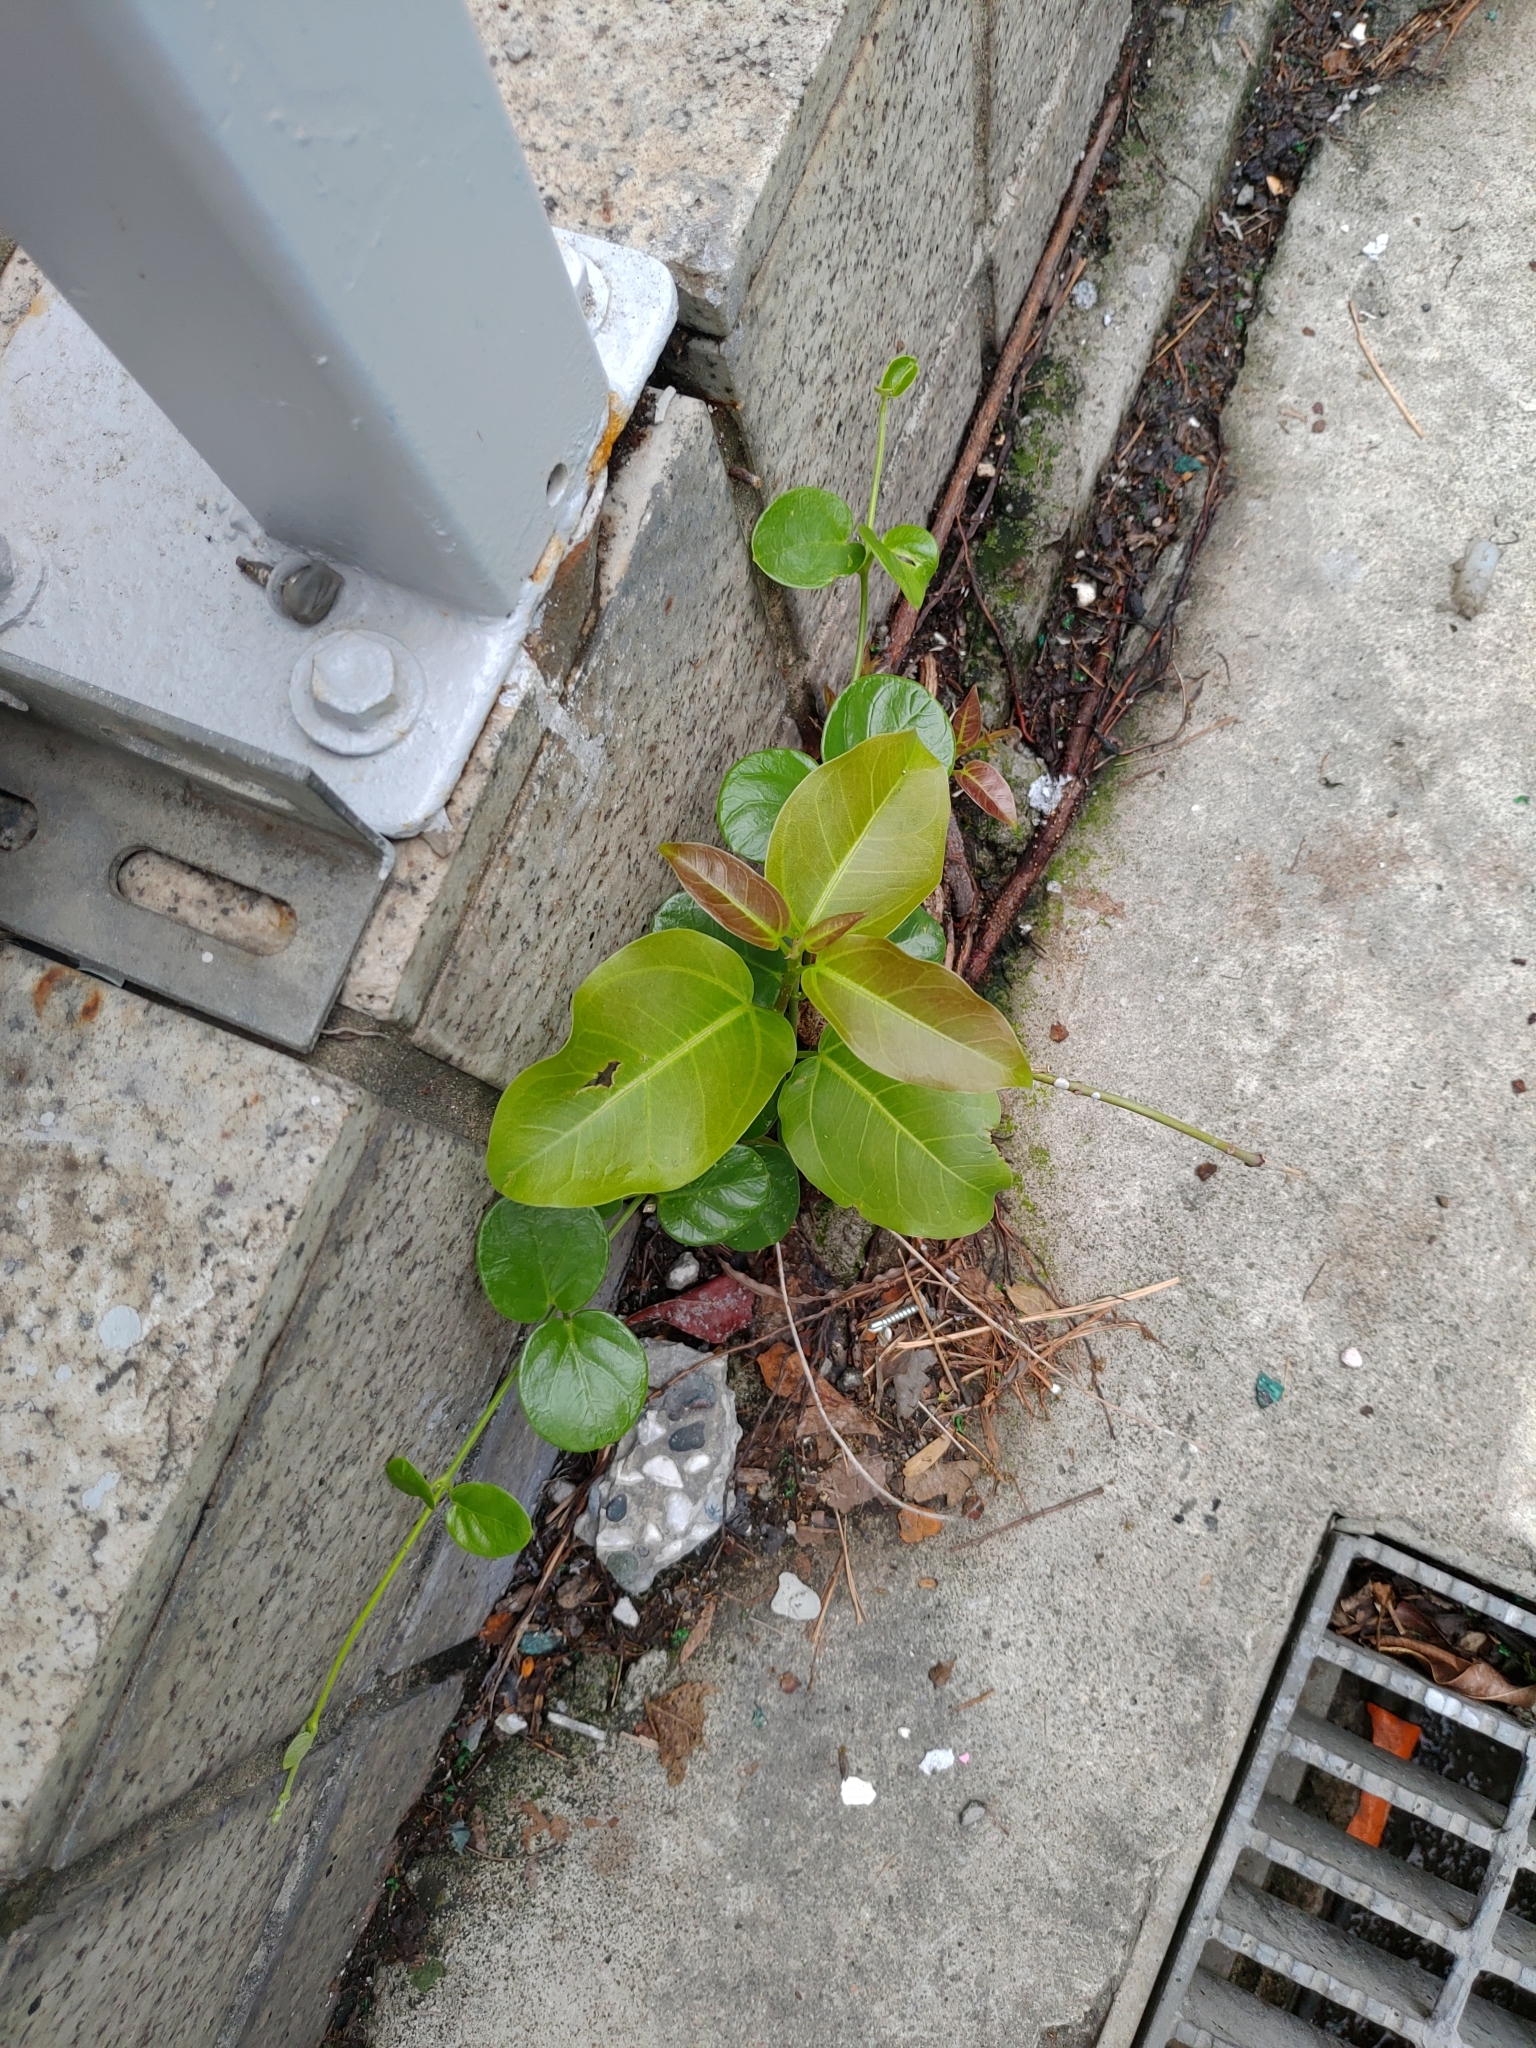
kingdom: Plantae
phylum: Tracheophyta
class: Magnoliopsida
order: Rosales
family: Moraceae
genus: Ficus
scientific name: Ficus subpisocarpa
